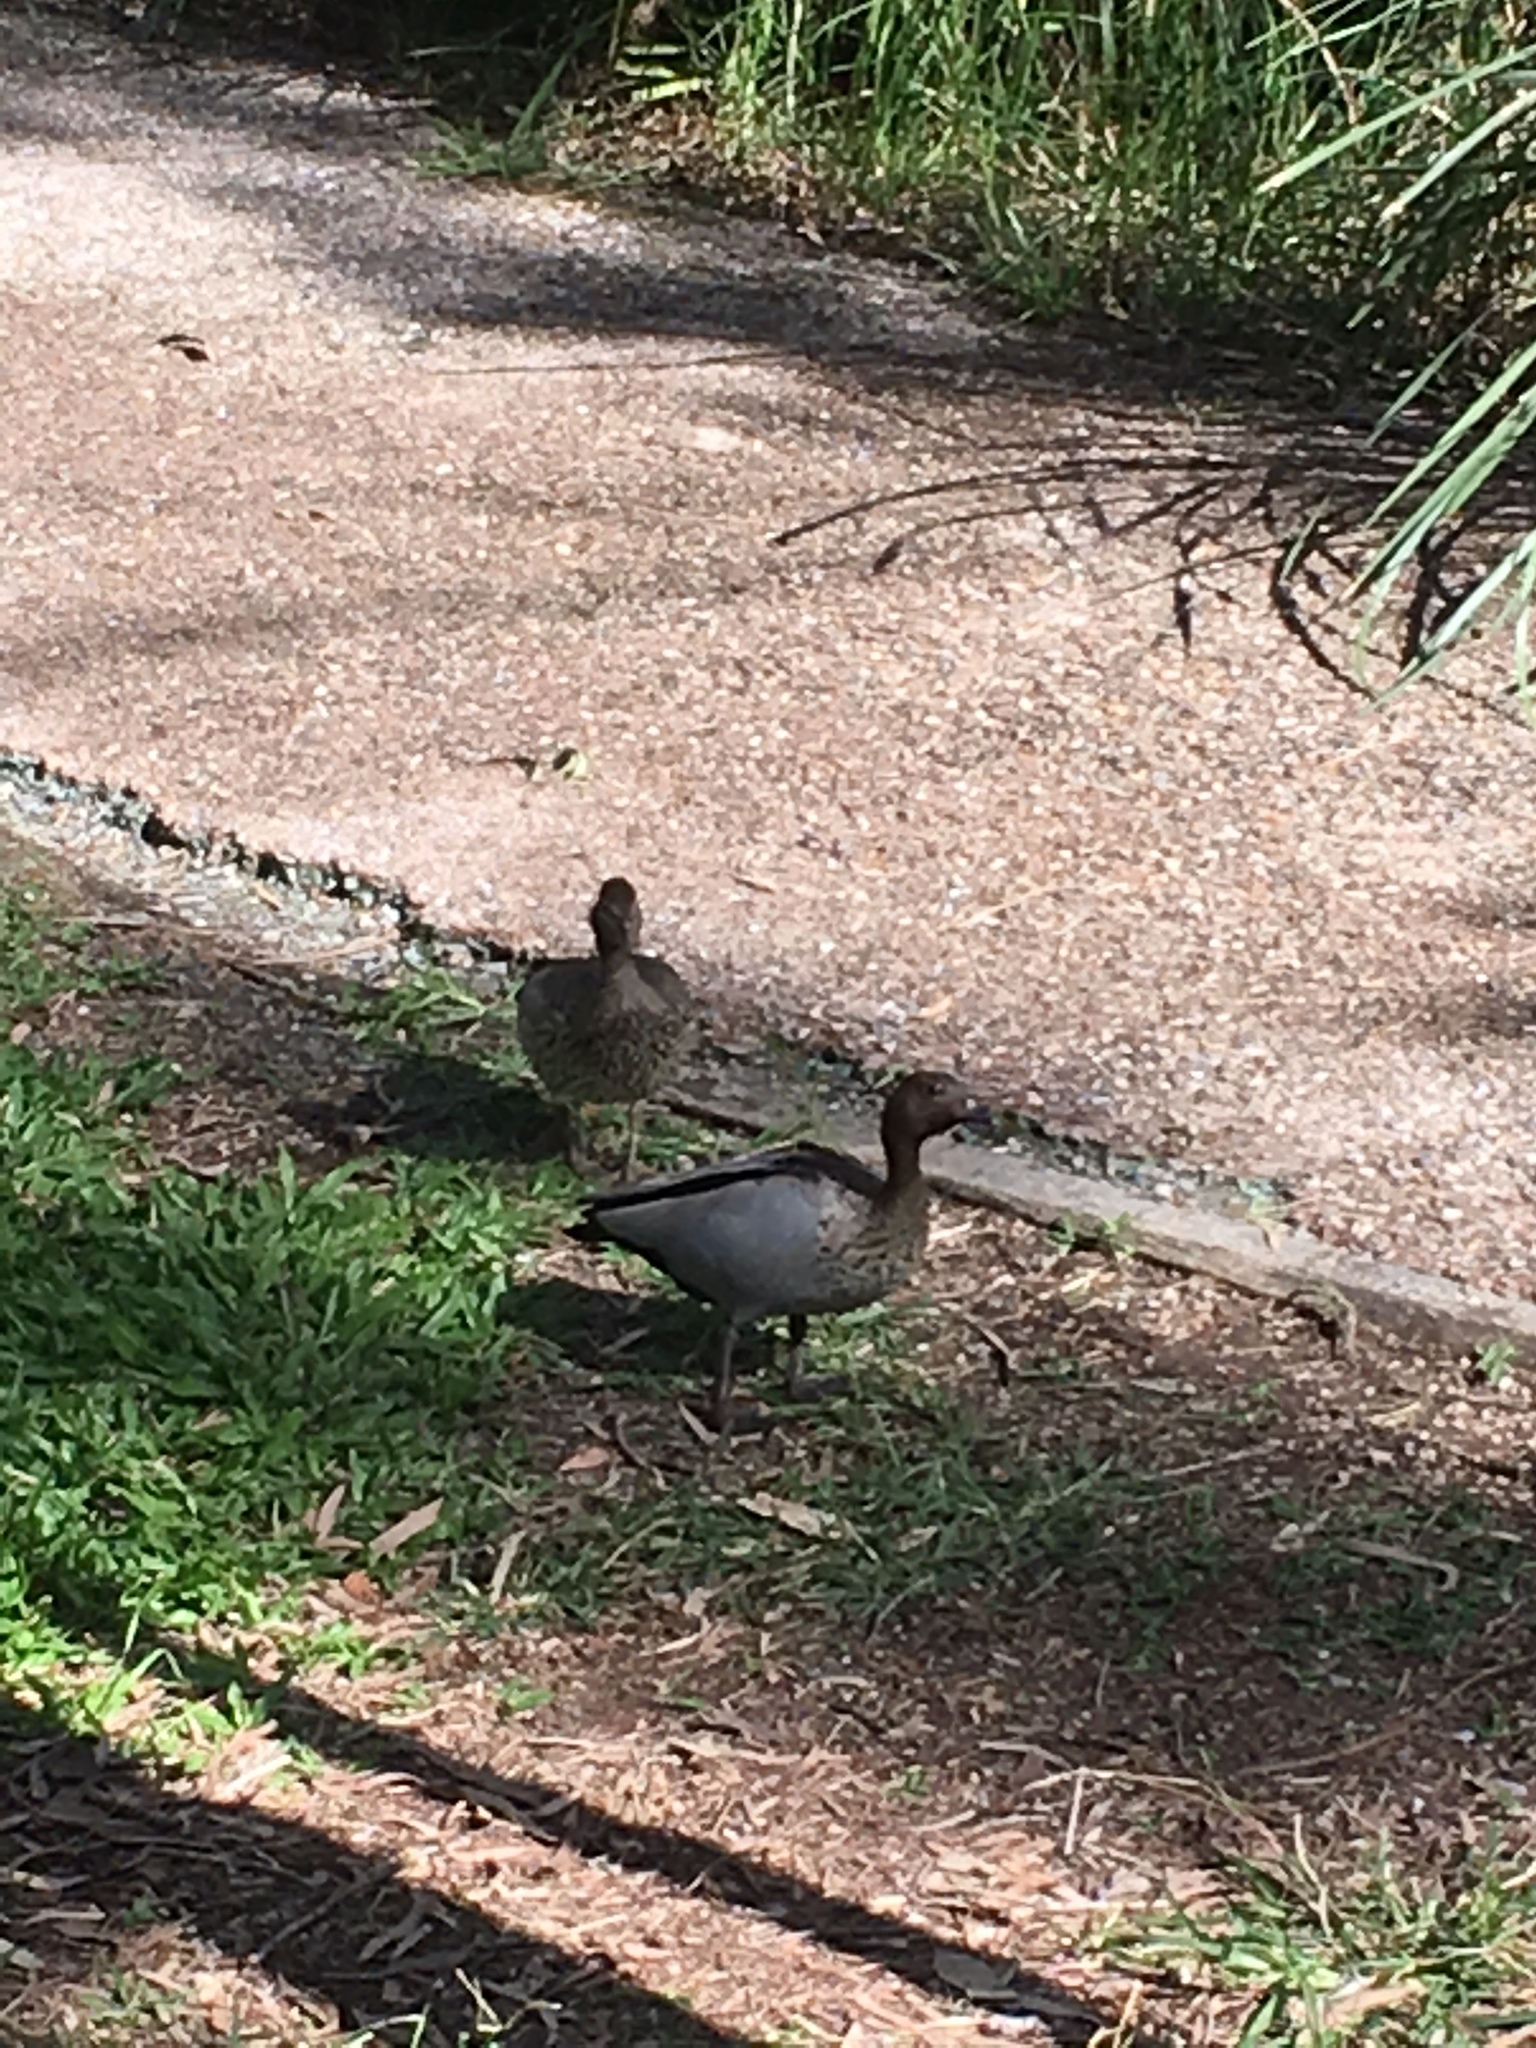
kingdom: Animalia
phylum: Chordata
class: Aves
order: Anseriformes
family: Anatidae
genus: Chenonetta
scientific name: Chenonetta jubata
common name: Maned duck
